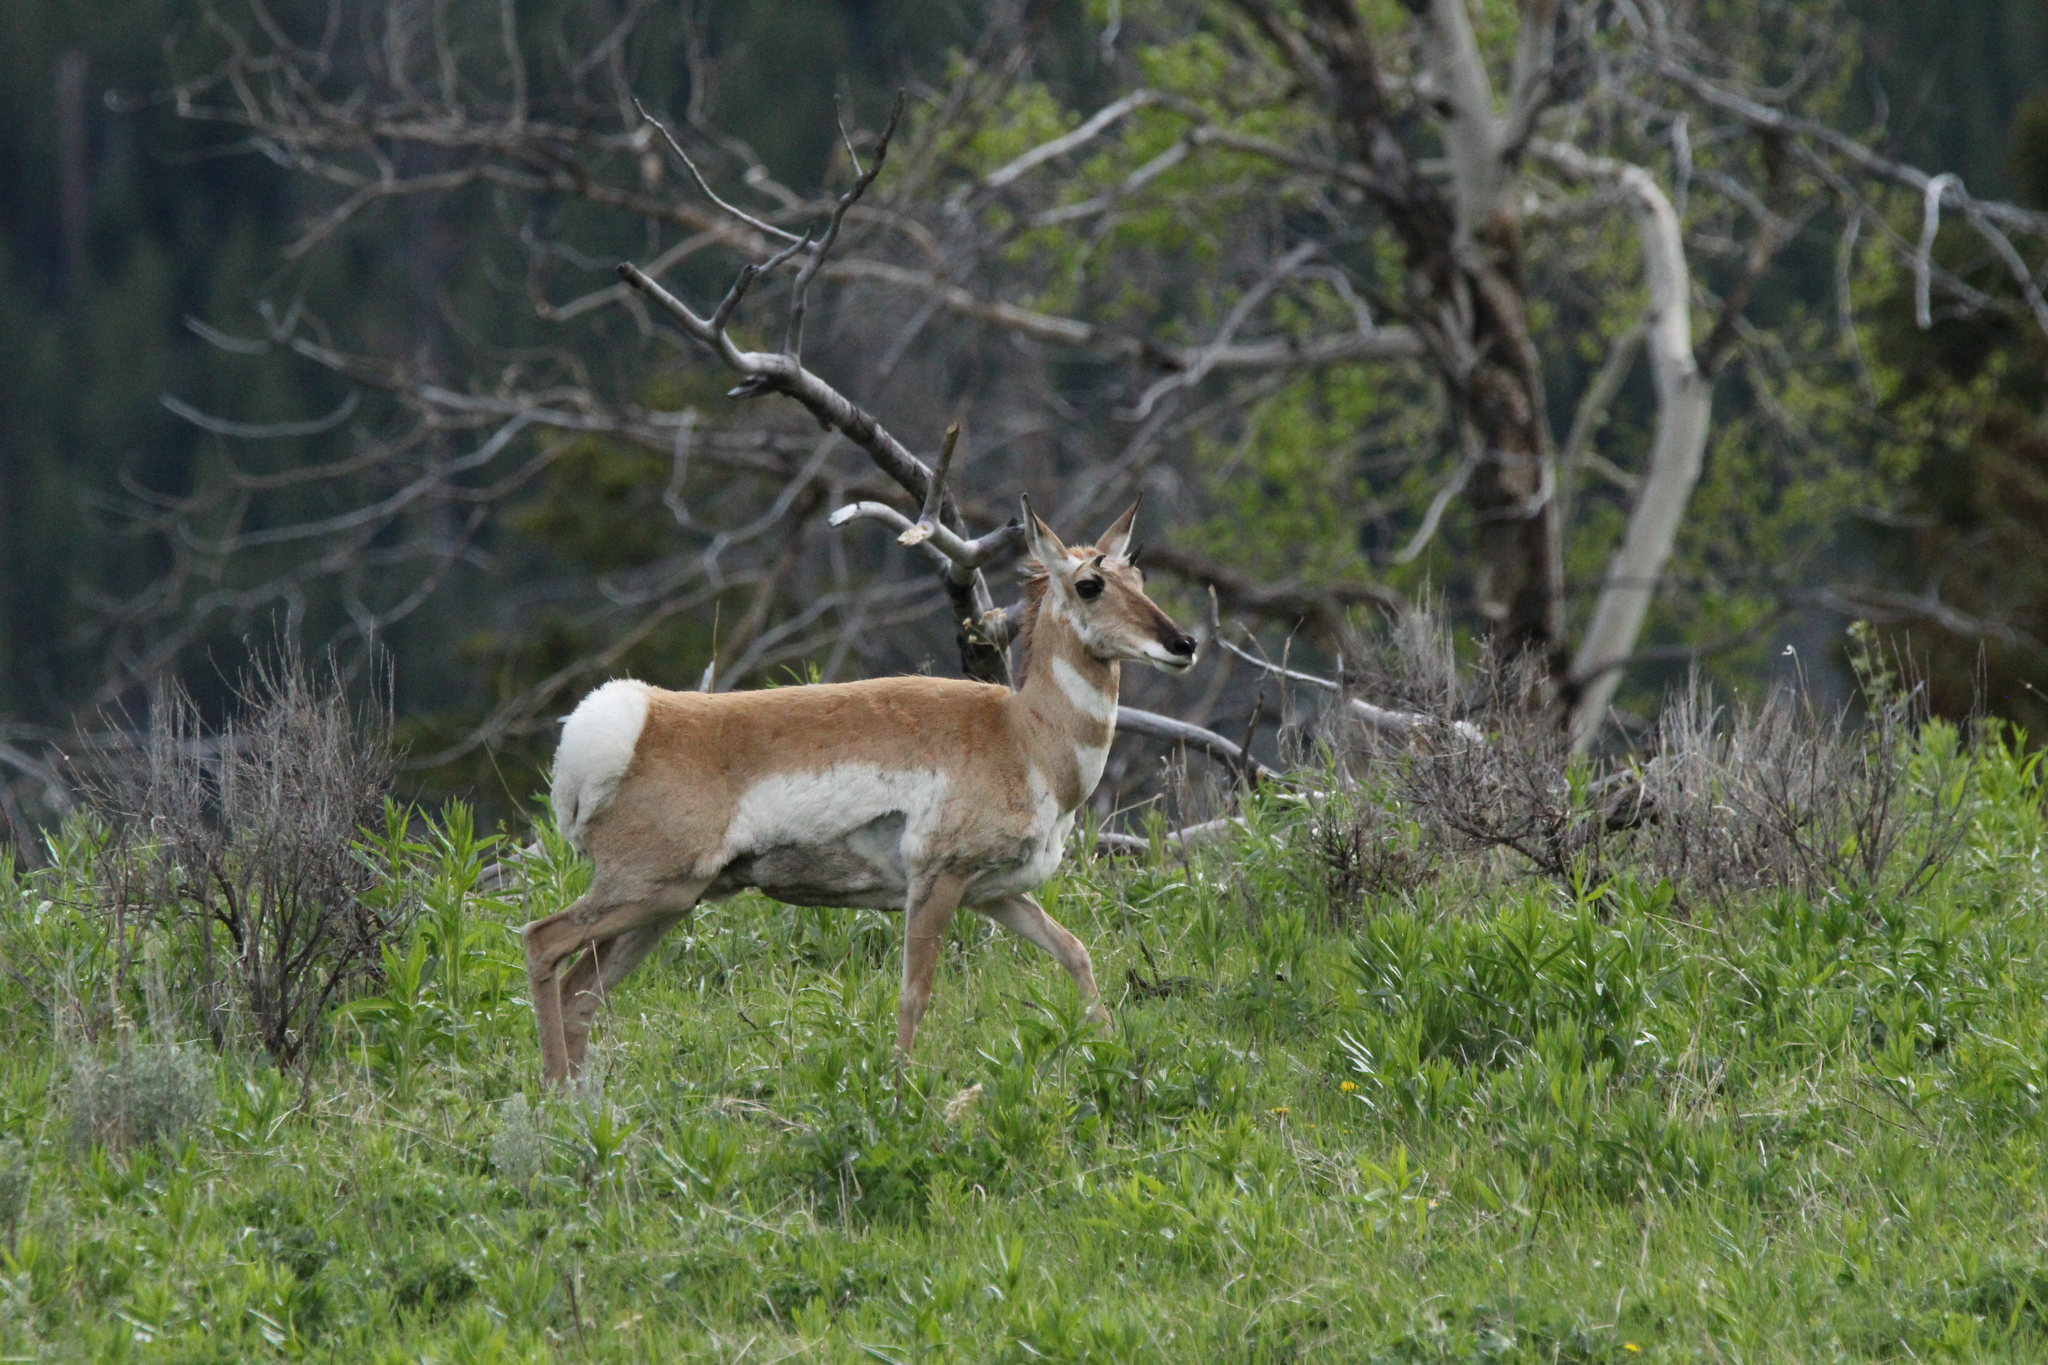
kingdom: Animalia
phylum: Chordata
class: Mammalia
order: Artiodactyla
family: Antilocapridae
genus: Antilocapra
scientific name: Antilocapra americana
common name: Pronghorn
